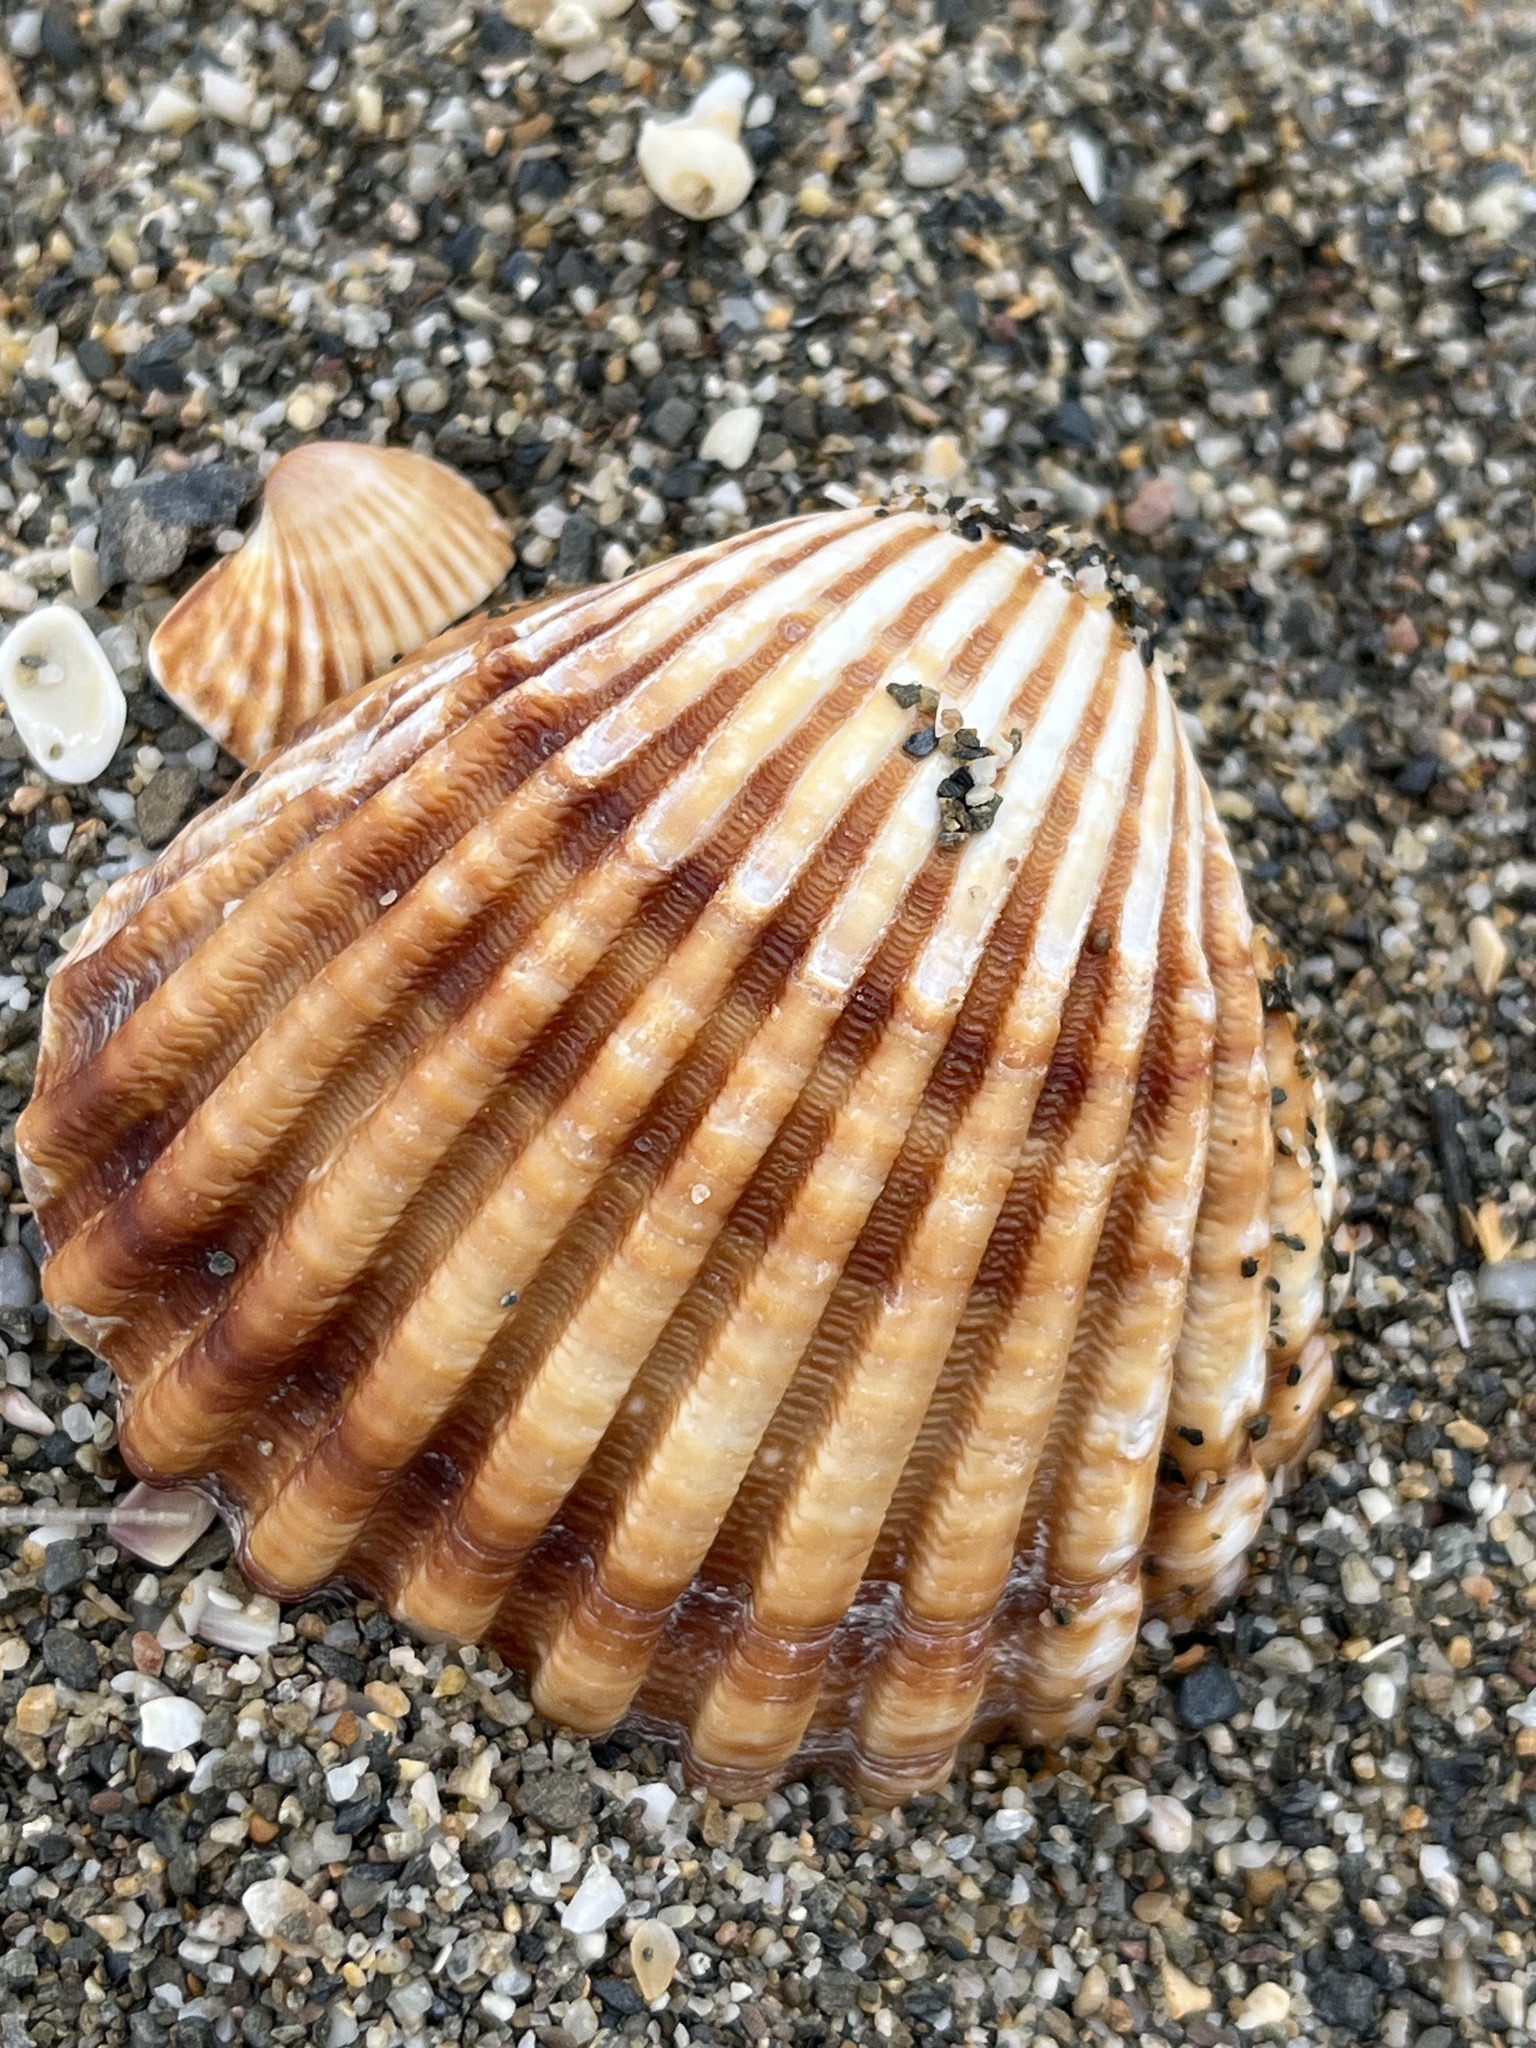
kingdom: Animalia
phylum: Mollusca
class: Bivalvia
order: Cardiida
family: Cardiidae
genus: Acanthocardia
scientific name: Acanthocardia tuberculata
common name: Rough cockle
